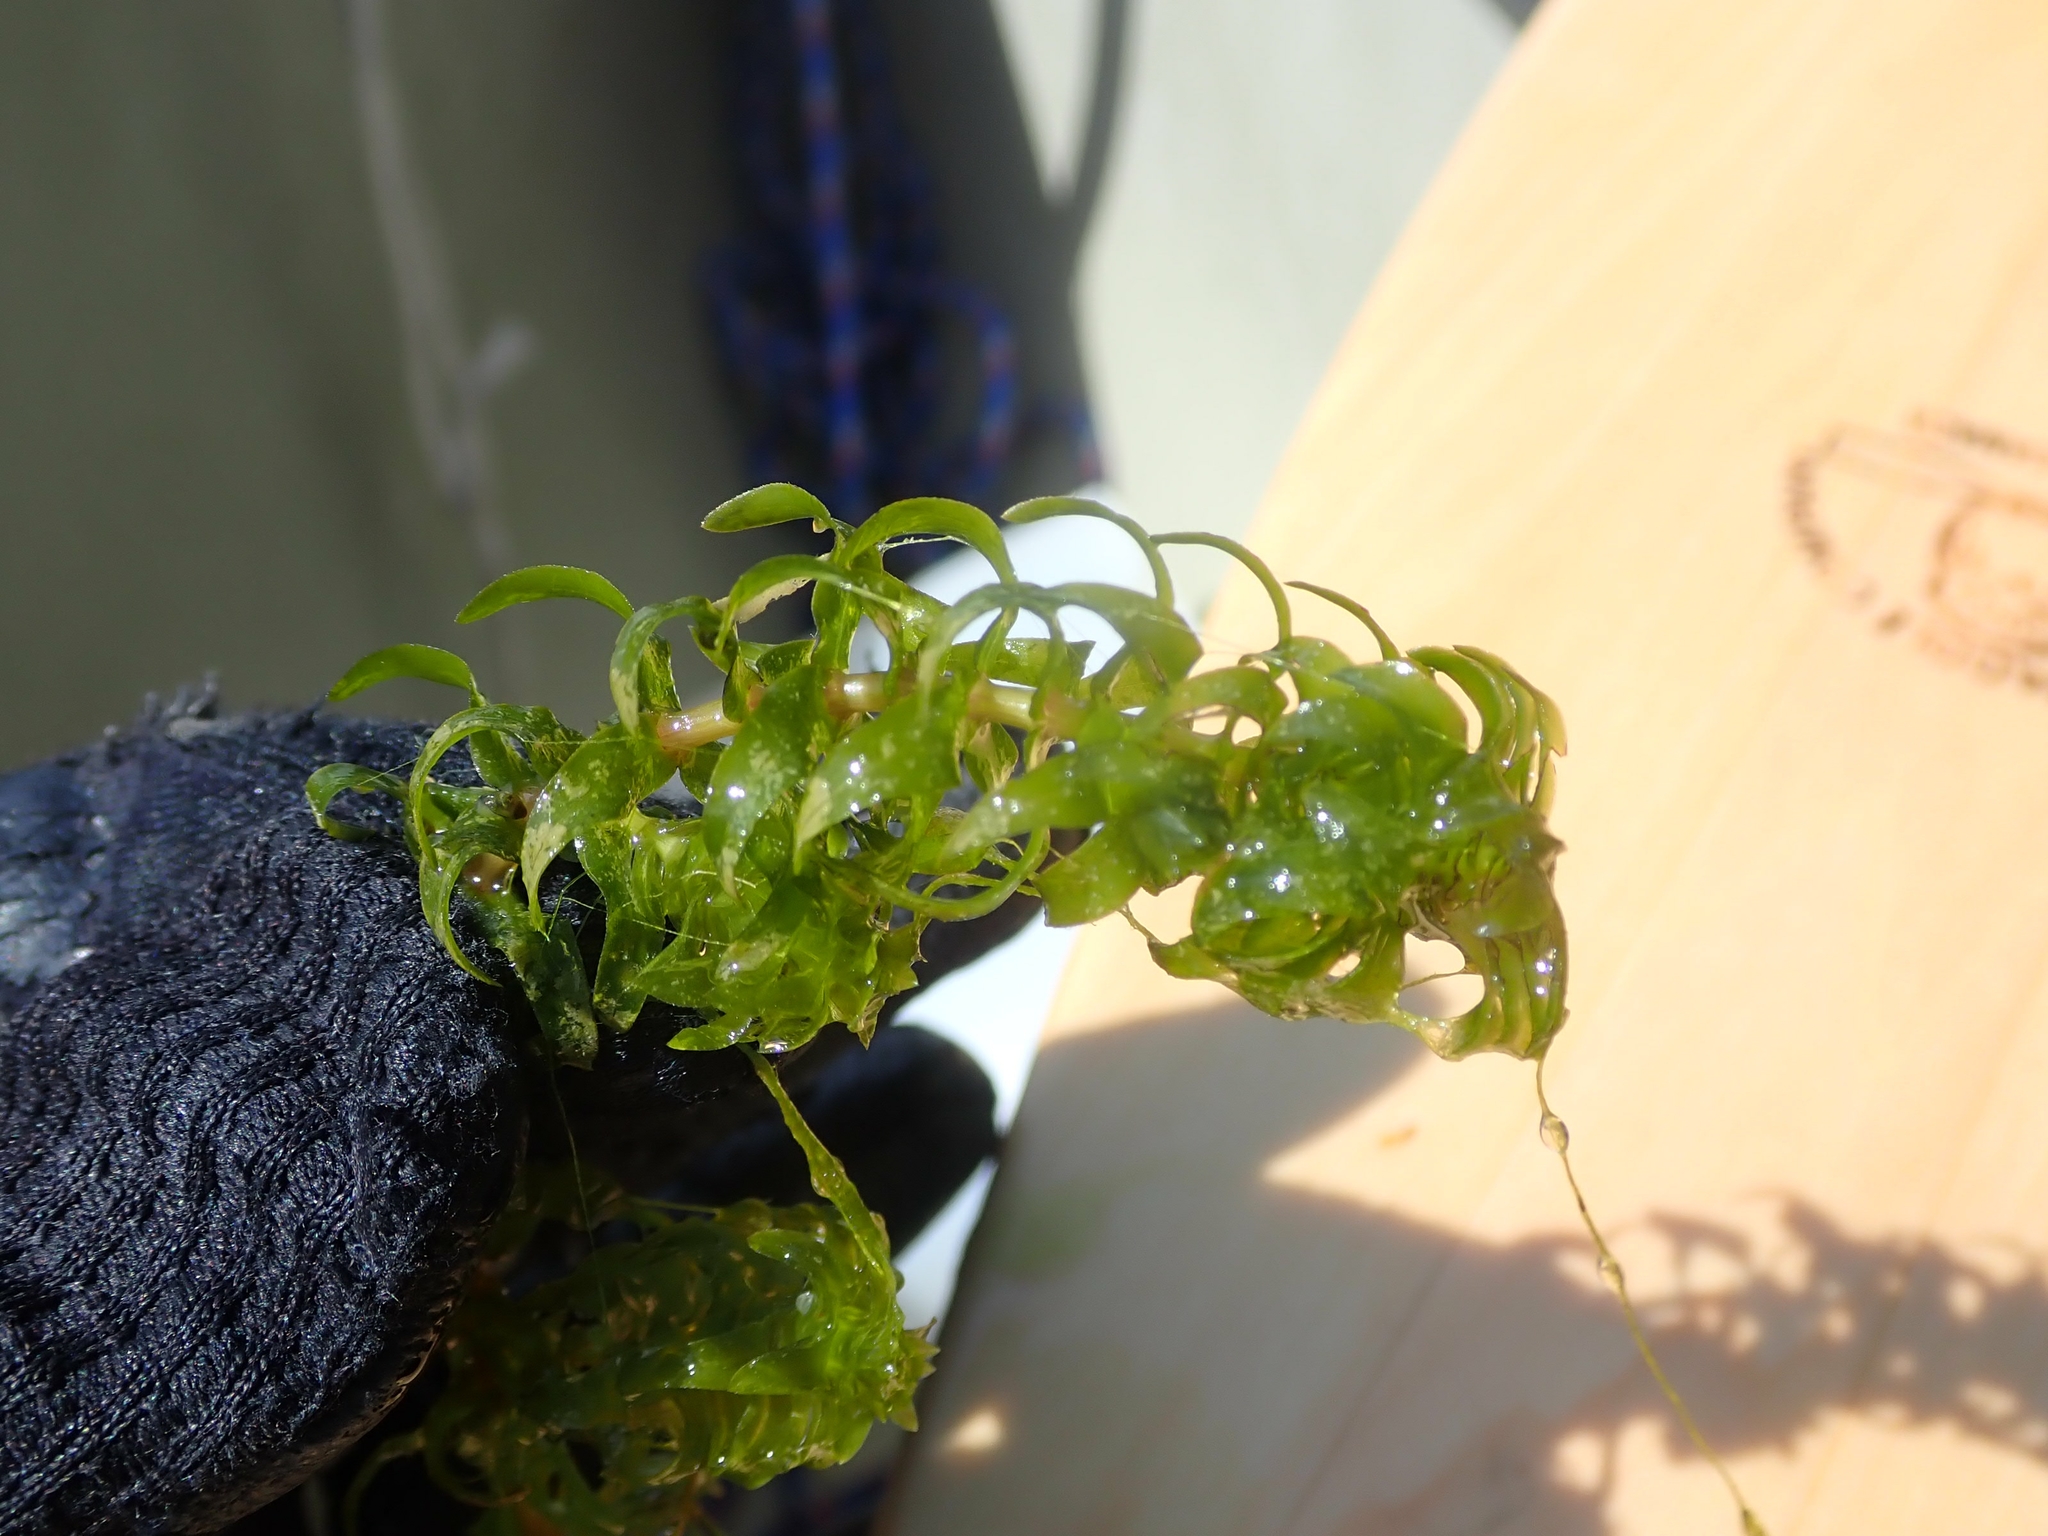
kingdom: Plantae
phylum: Tracheophyta
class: Liliopsida
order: Alismatales
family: Hydrocharitaceae
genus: Elodea
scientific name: Elodea canadensis
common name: Canadian waterweed
